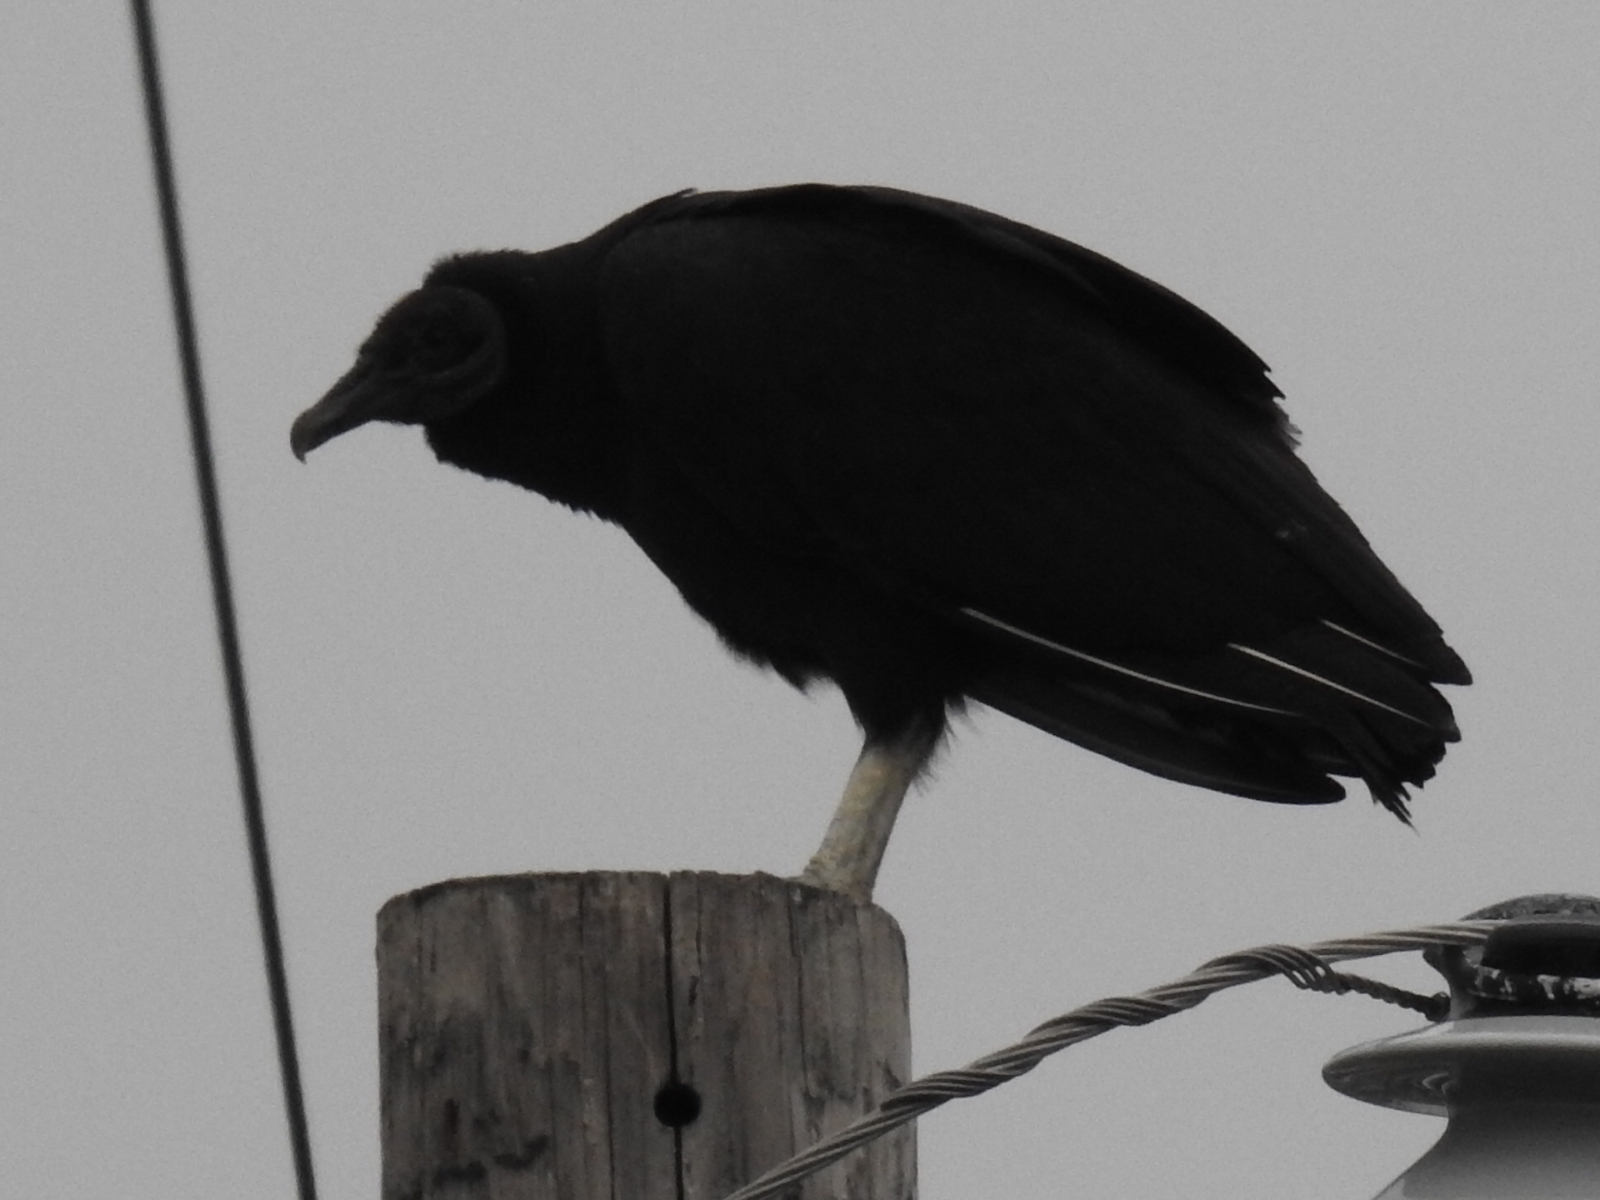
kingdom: Animalia
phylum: Chordata
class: Aves
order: Accipitriformes
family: Cathartidae
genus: Coragyps
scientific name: Coragyps atratus
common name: Black vulture
